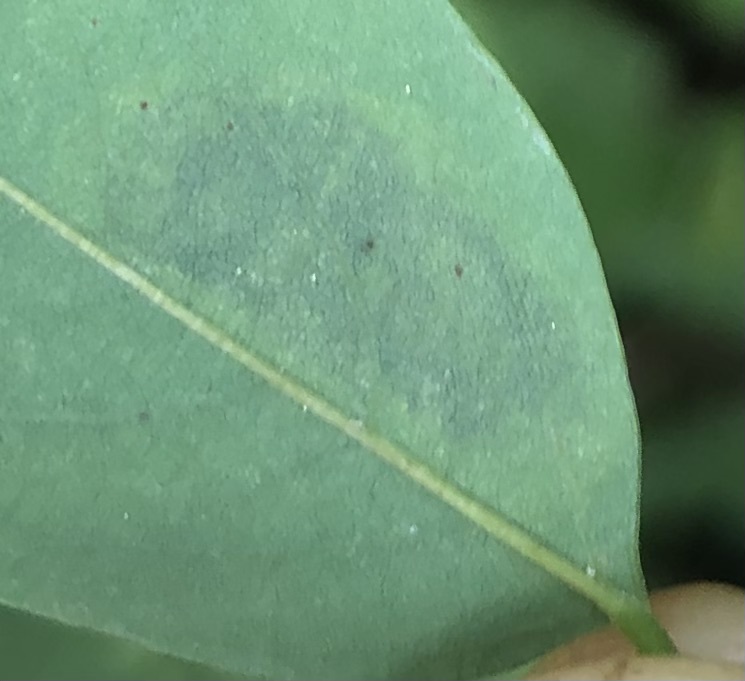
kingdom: Animalia
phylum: Arthropoda
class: Insecta
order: Lepidoptera
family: Gracillariidae
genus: Chrysaster
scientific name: Chrysaster ostensackenella
